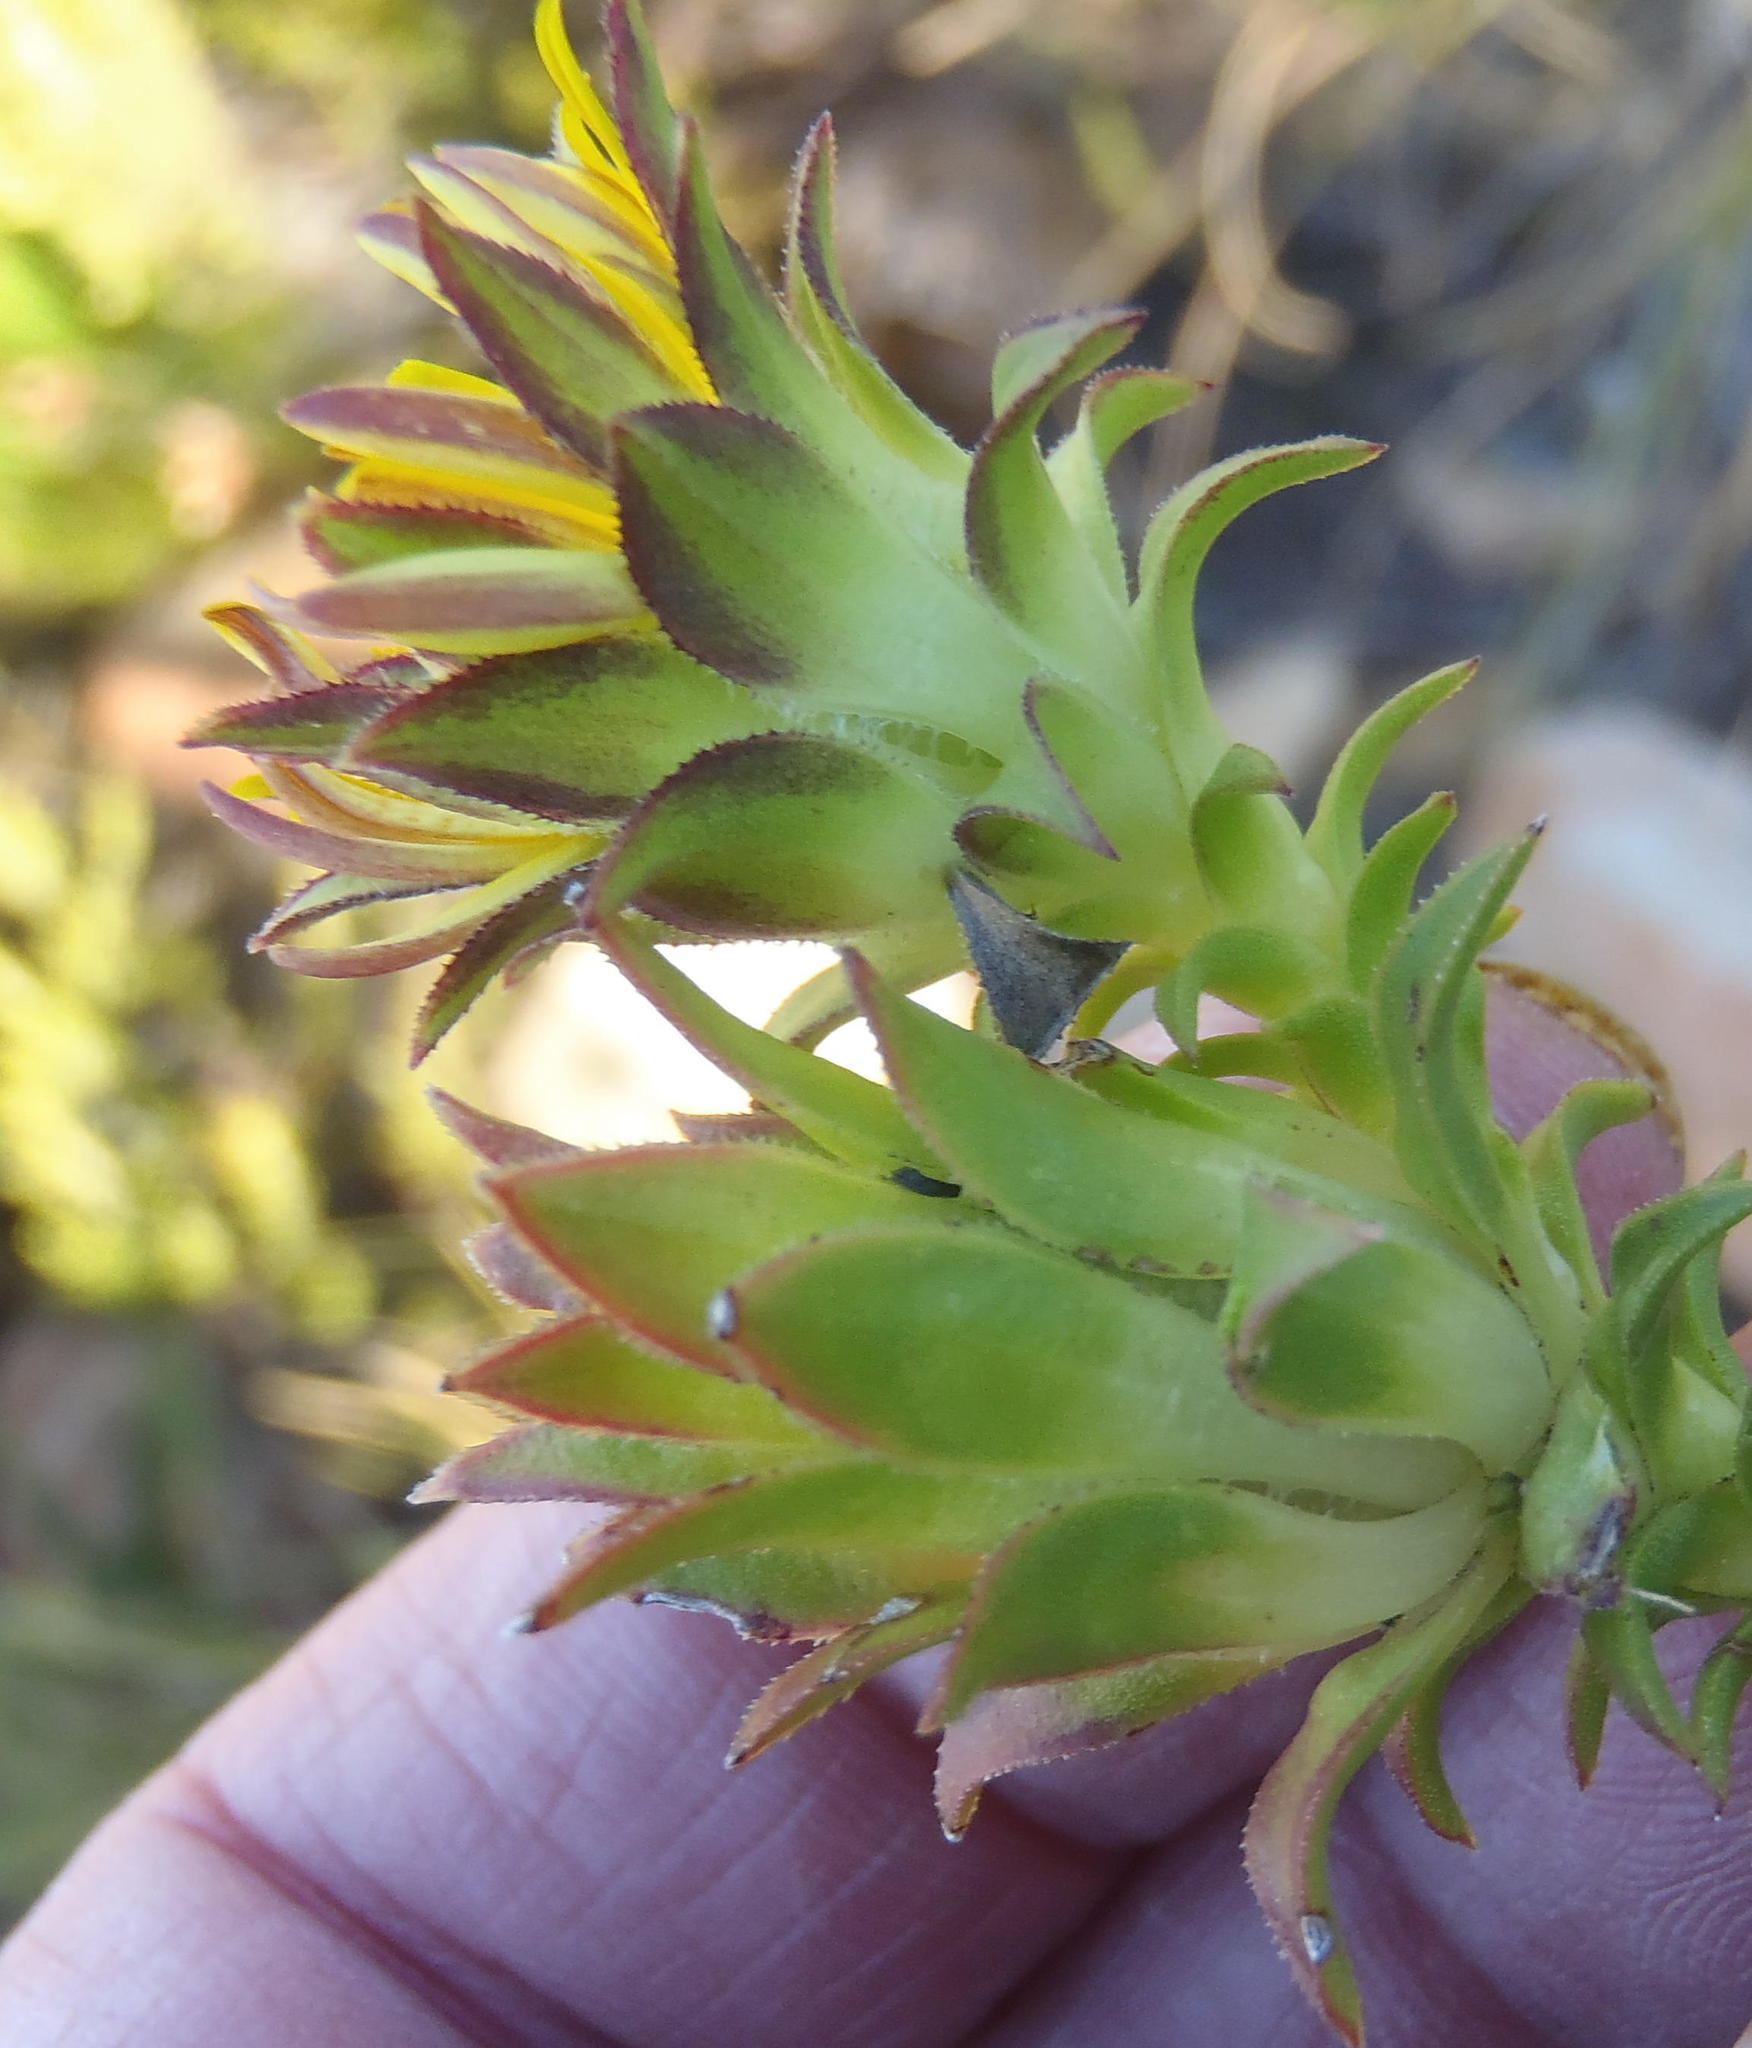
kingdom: Plantae
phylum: Tracheophyta
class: Magnoliopsida
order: Asterales
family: Asteraceae
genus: Oedera
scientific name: Oedera imbricata
